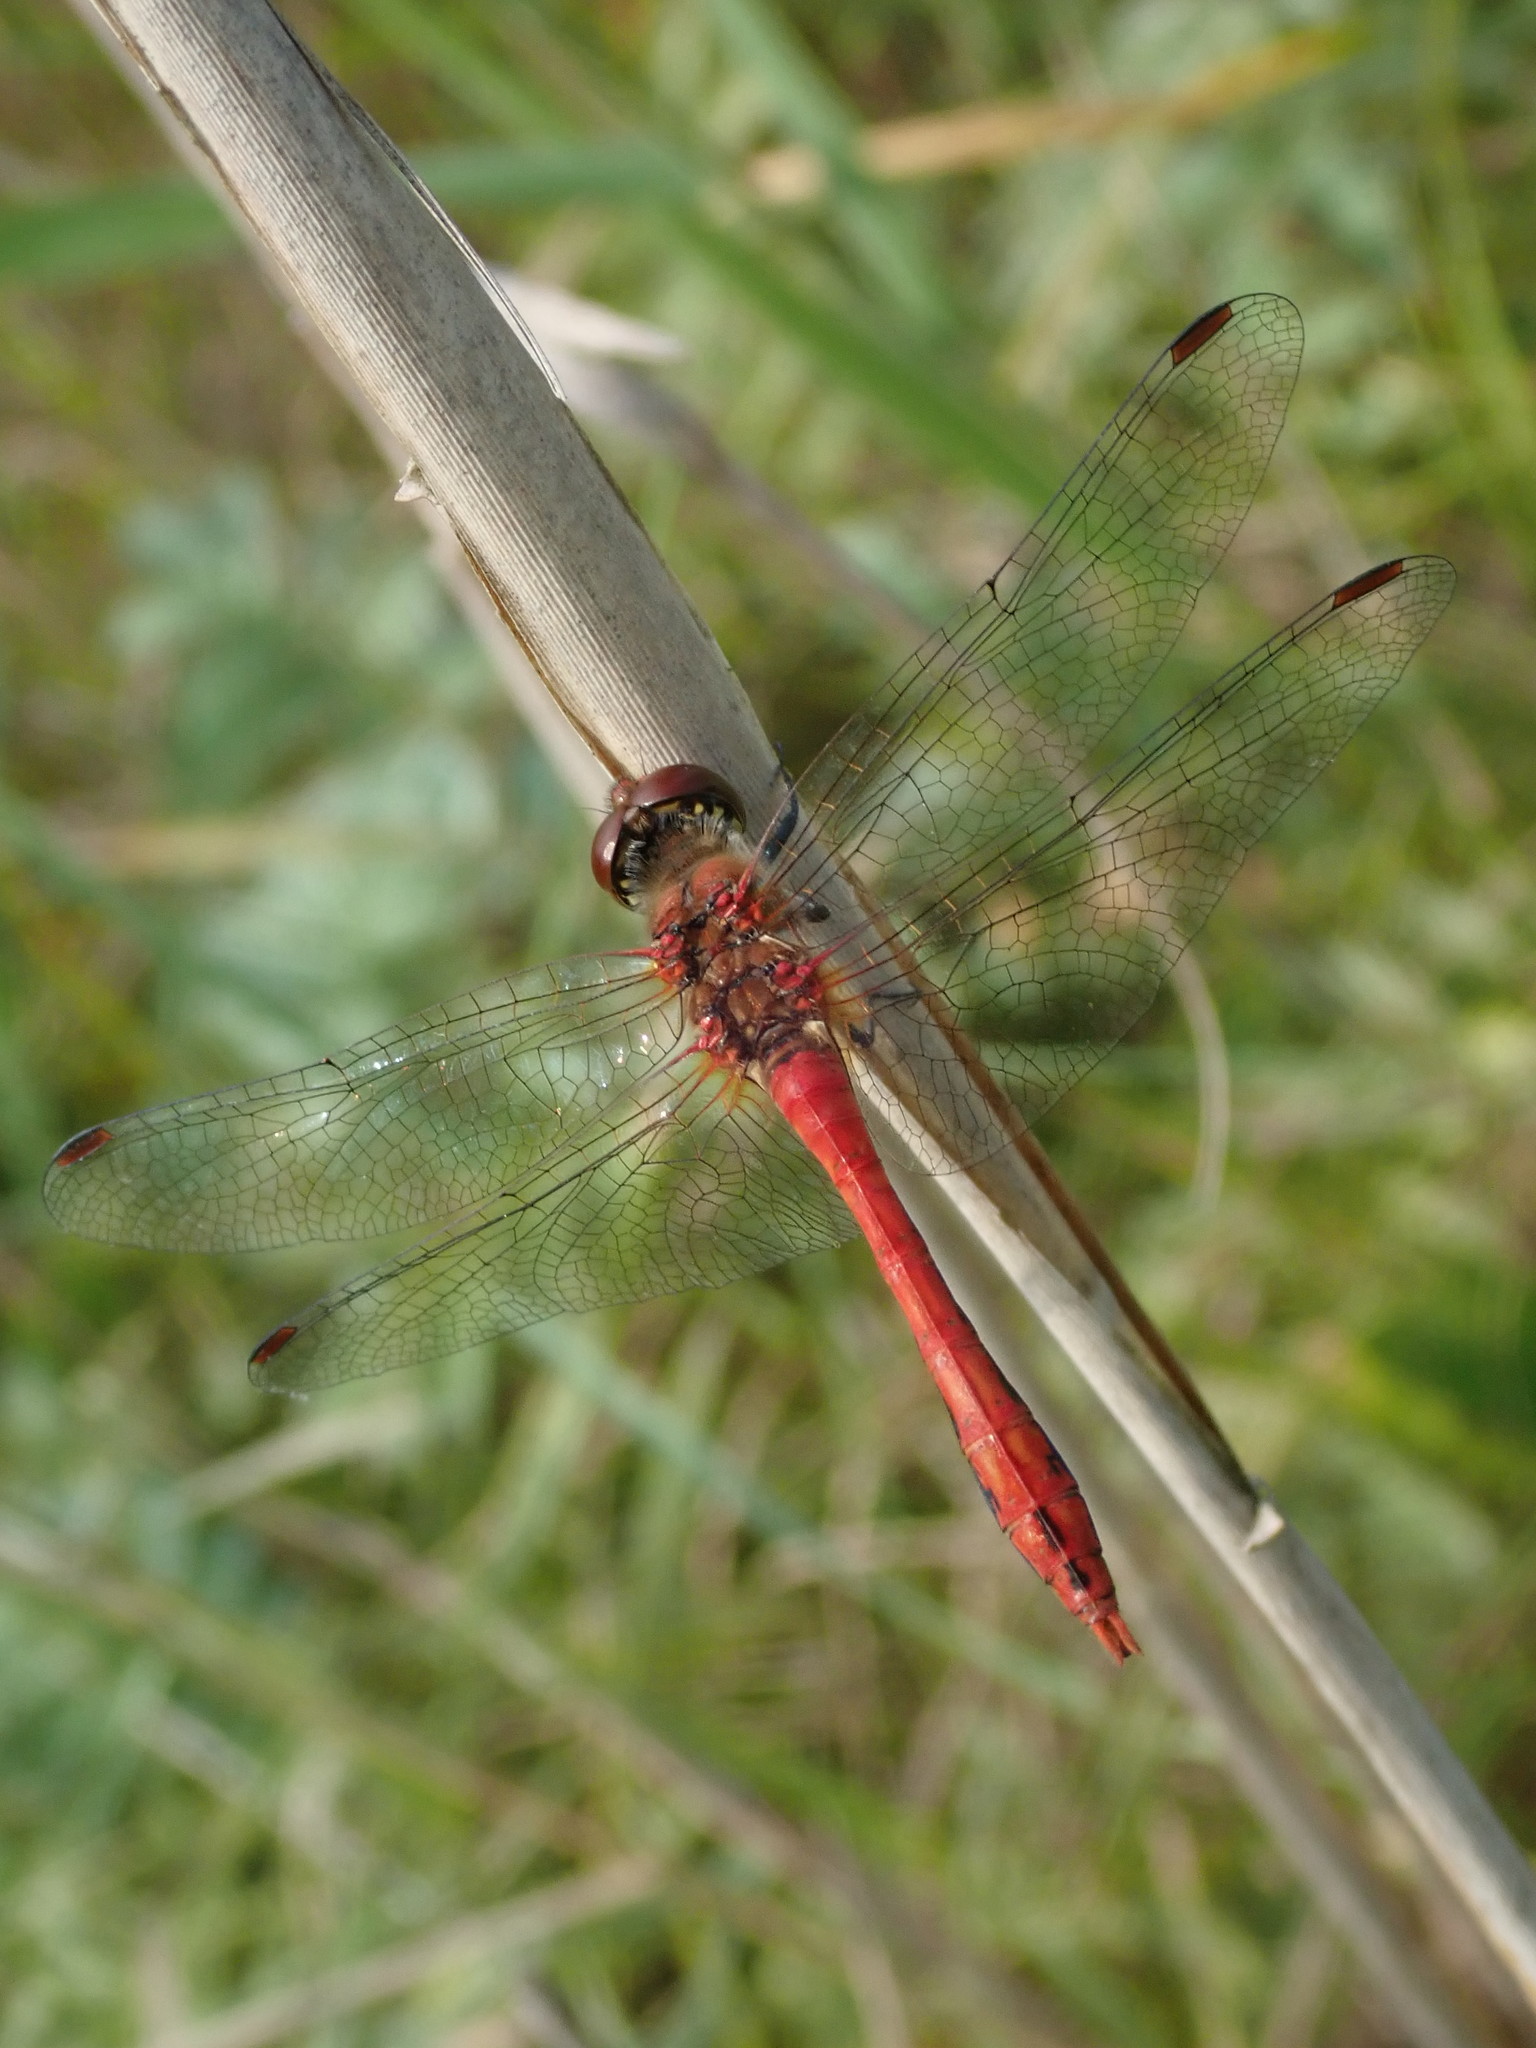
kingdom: Animalia
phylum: Arthropoda
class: Insecta
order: Odonata
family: Libellulidae
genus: Sympetrum
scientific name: Sympetrum sanguineum
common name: Ruddy darter
